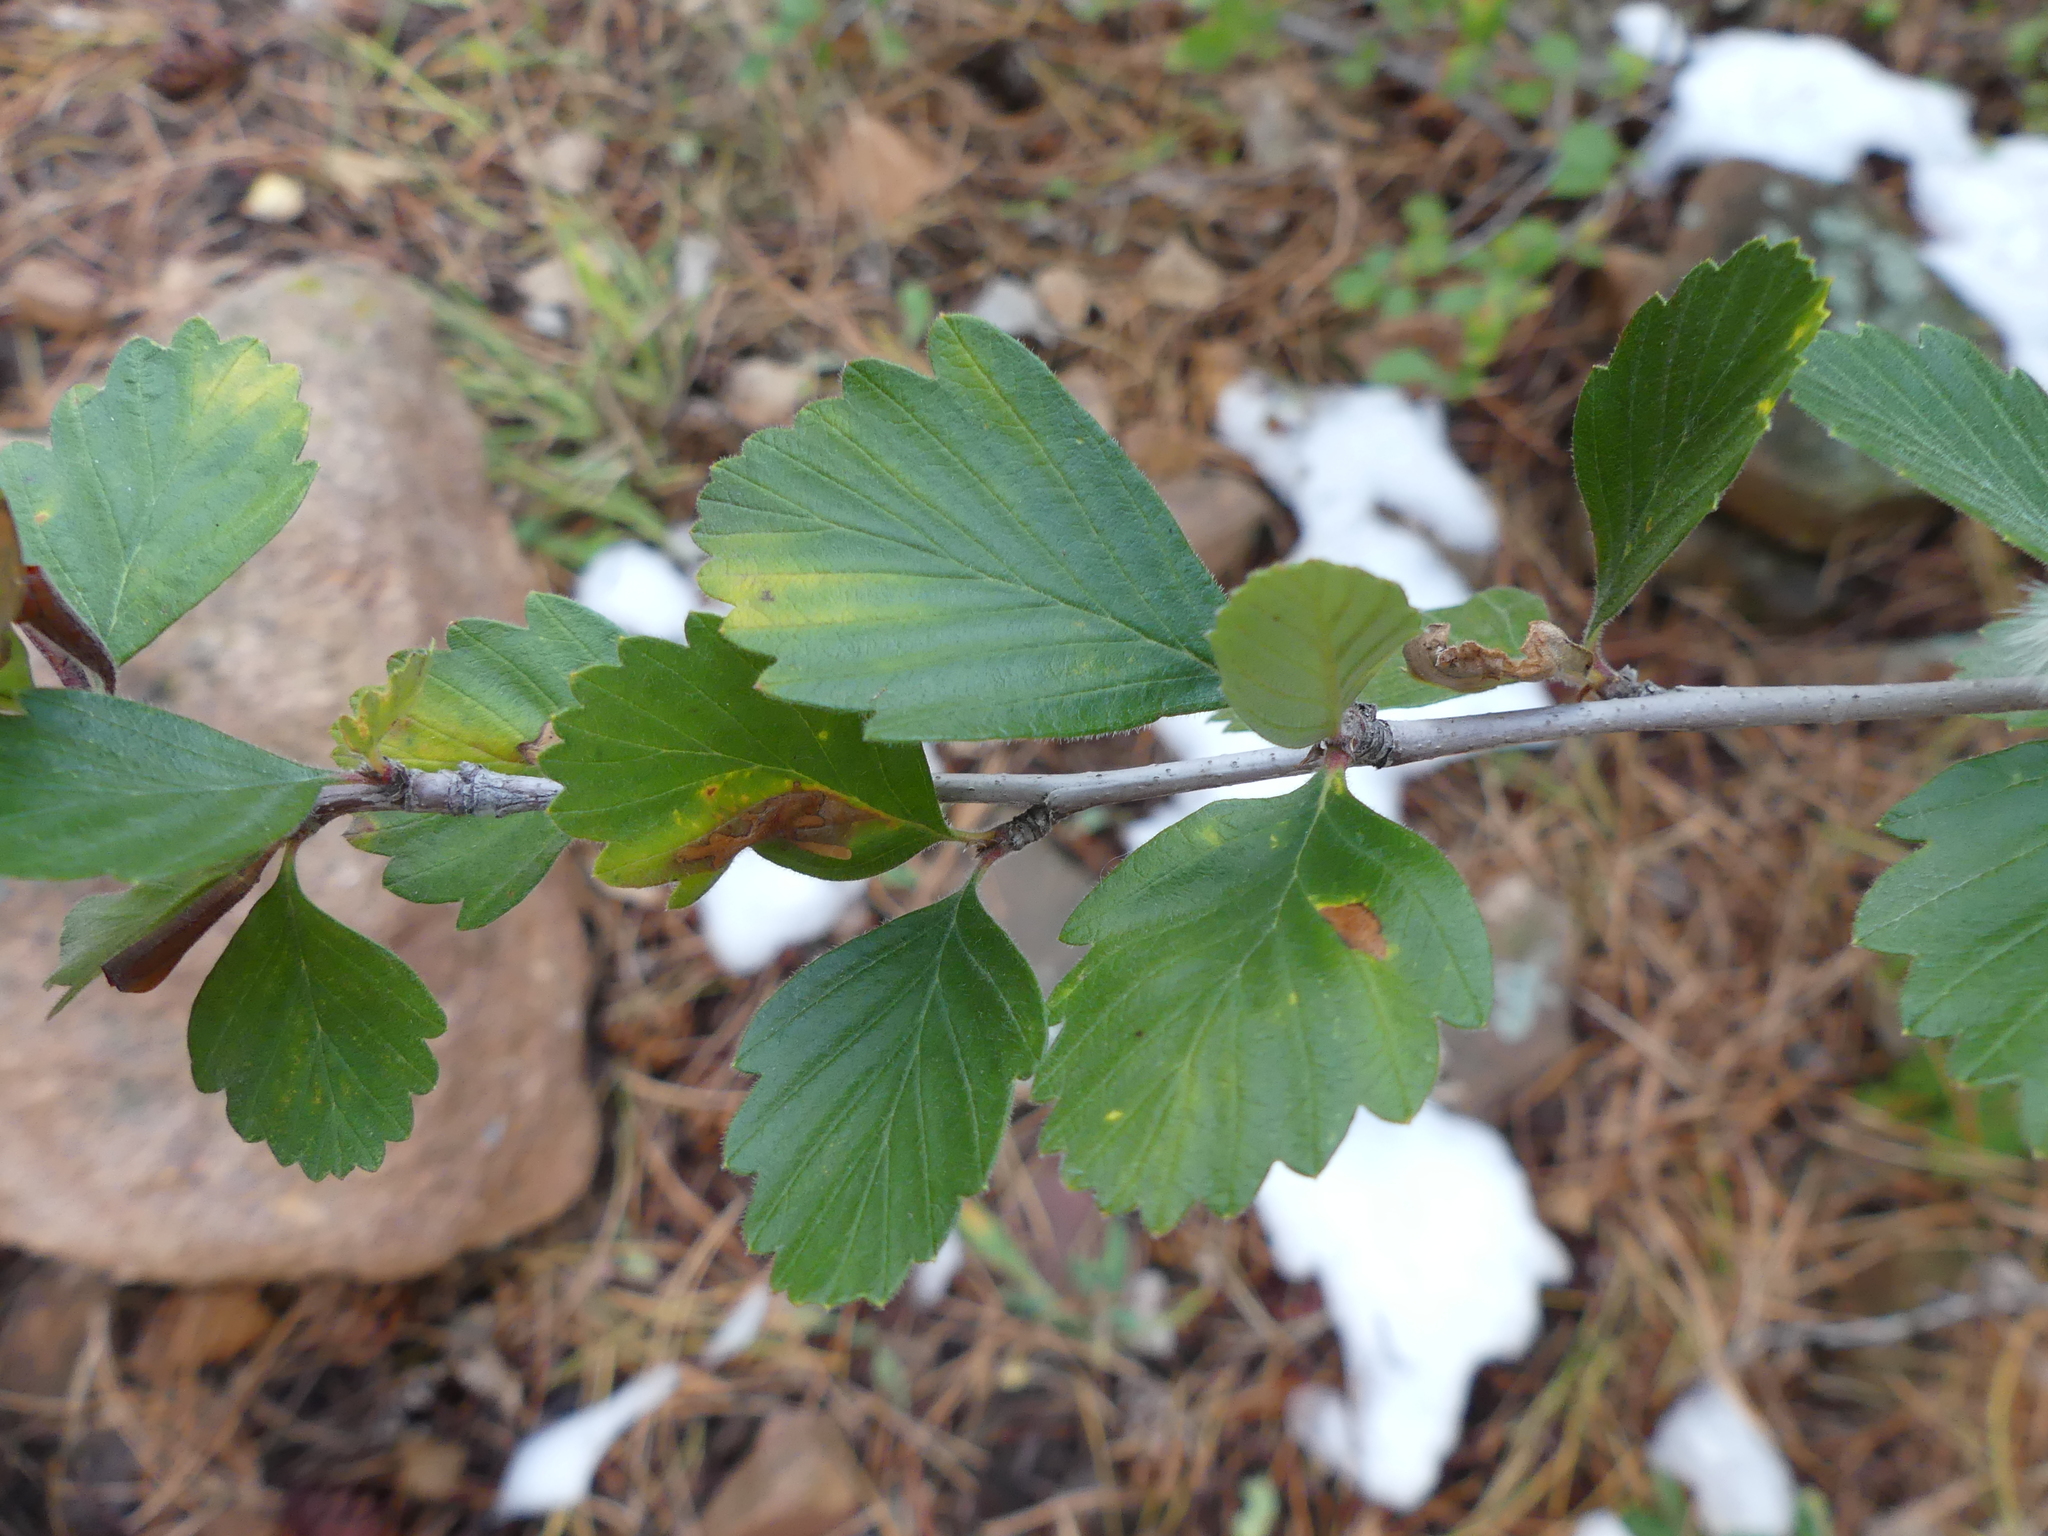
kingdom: Plantae
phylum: Tracheophyta
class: Magnoliopsida
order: Rosales
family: Rosaceae
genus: Cercocarpus
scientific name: Cercocarpus montanus
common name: Alder-leaf cercocarpus
